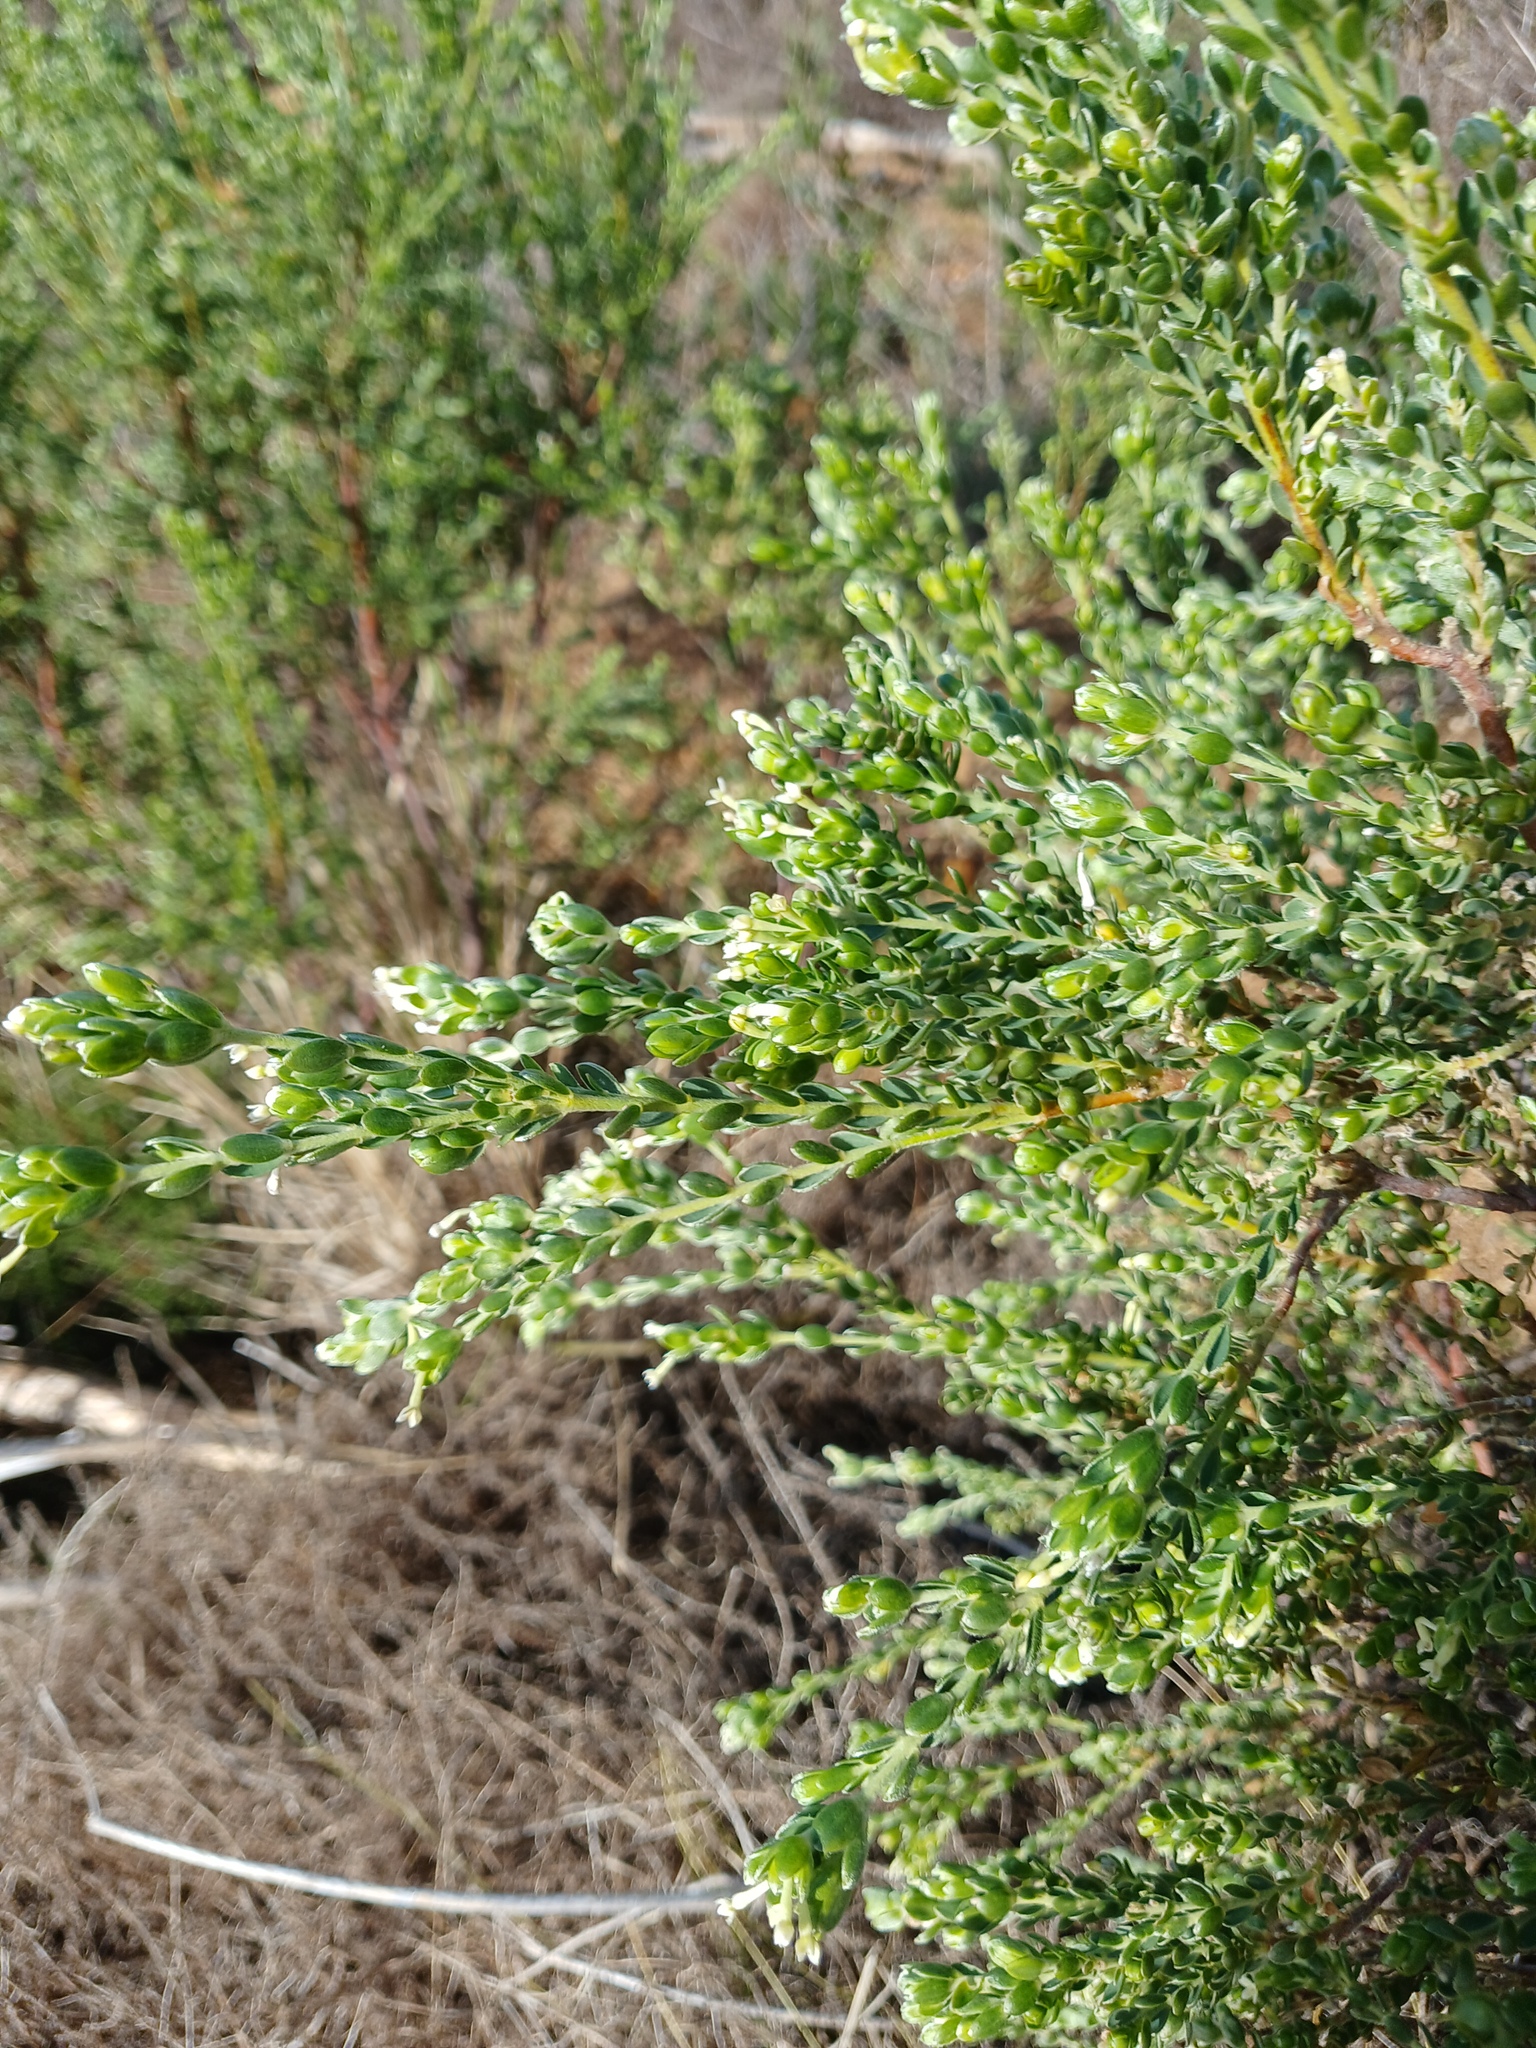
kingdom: Plantae
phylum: Tracheophyta
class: Magnoliopsida
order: Malvales
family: Thymelaeaceae
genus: Gnidia
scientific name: Gnidia sericea
